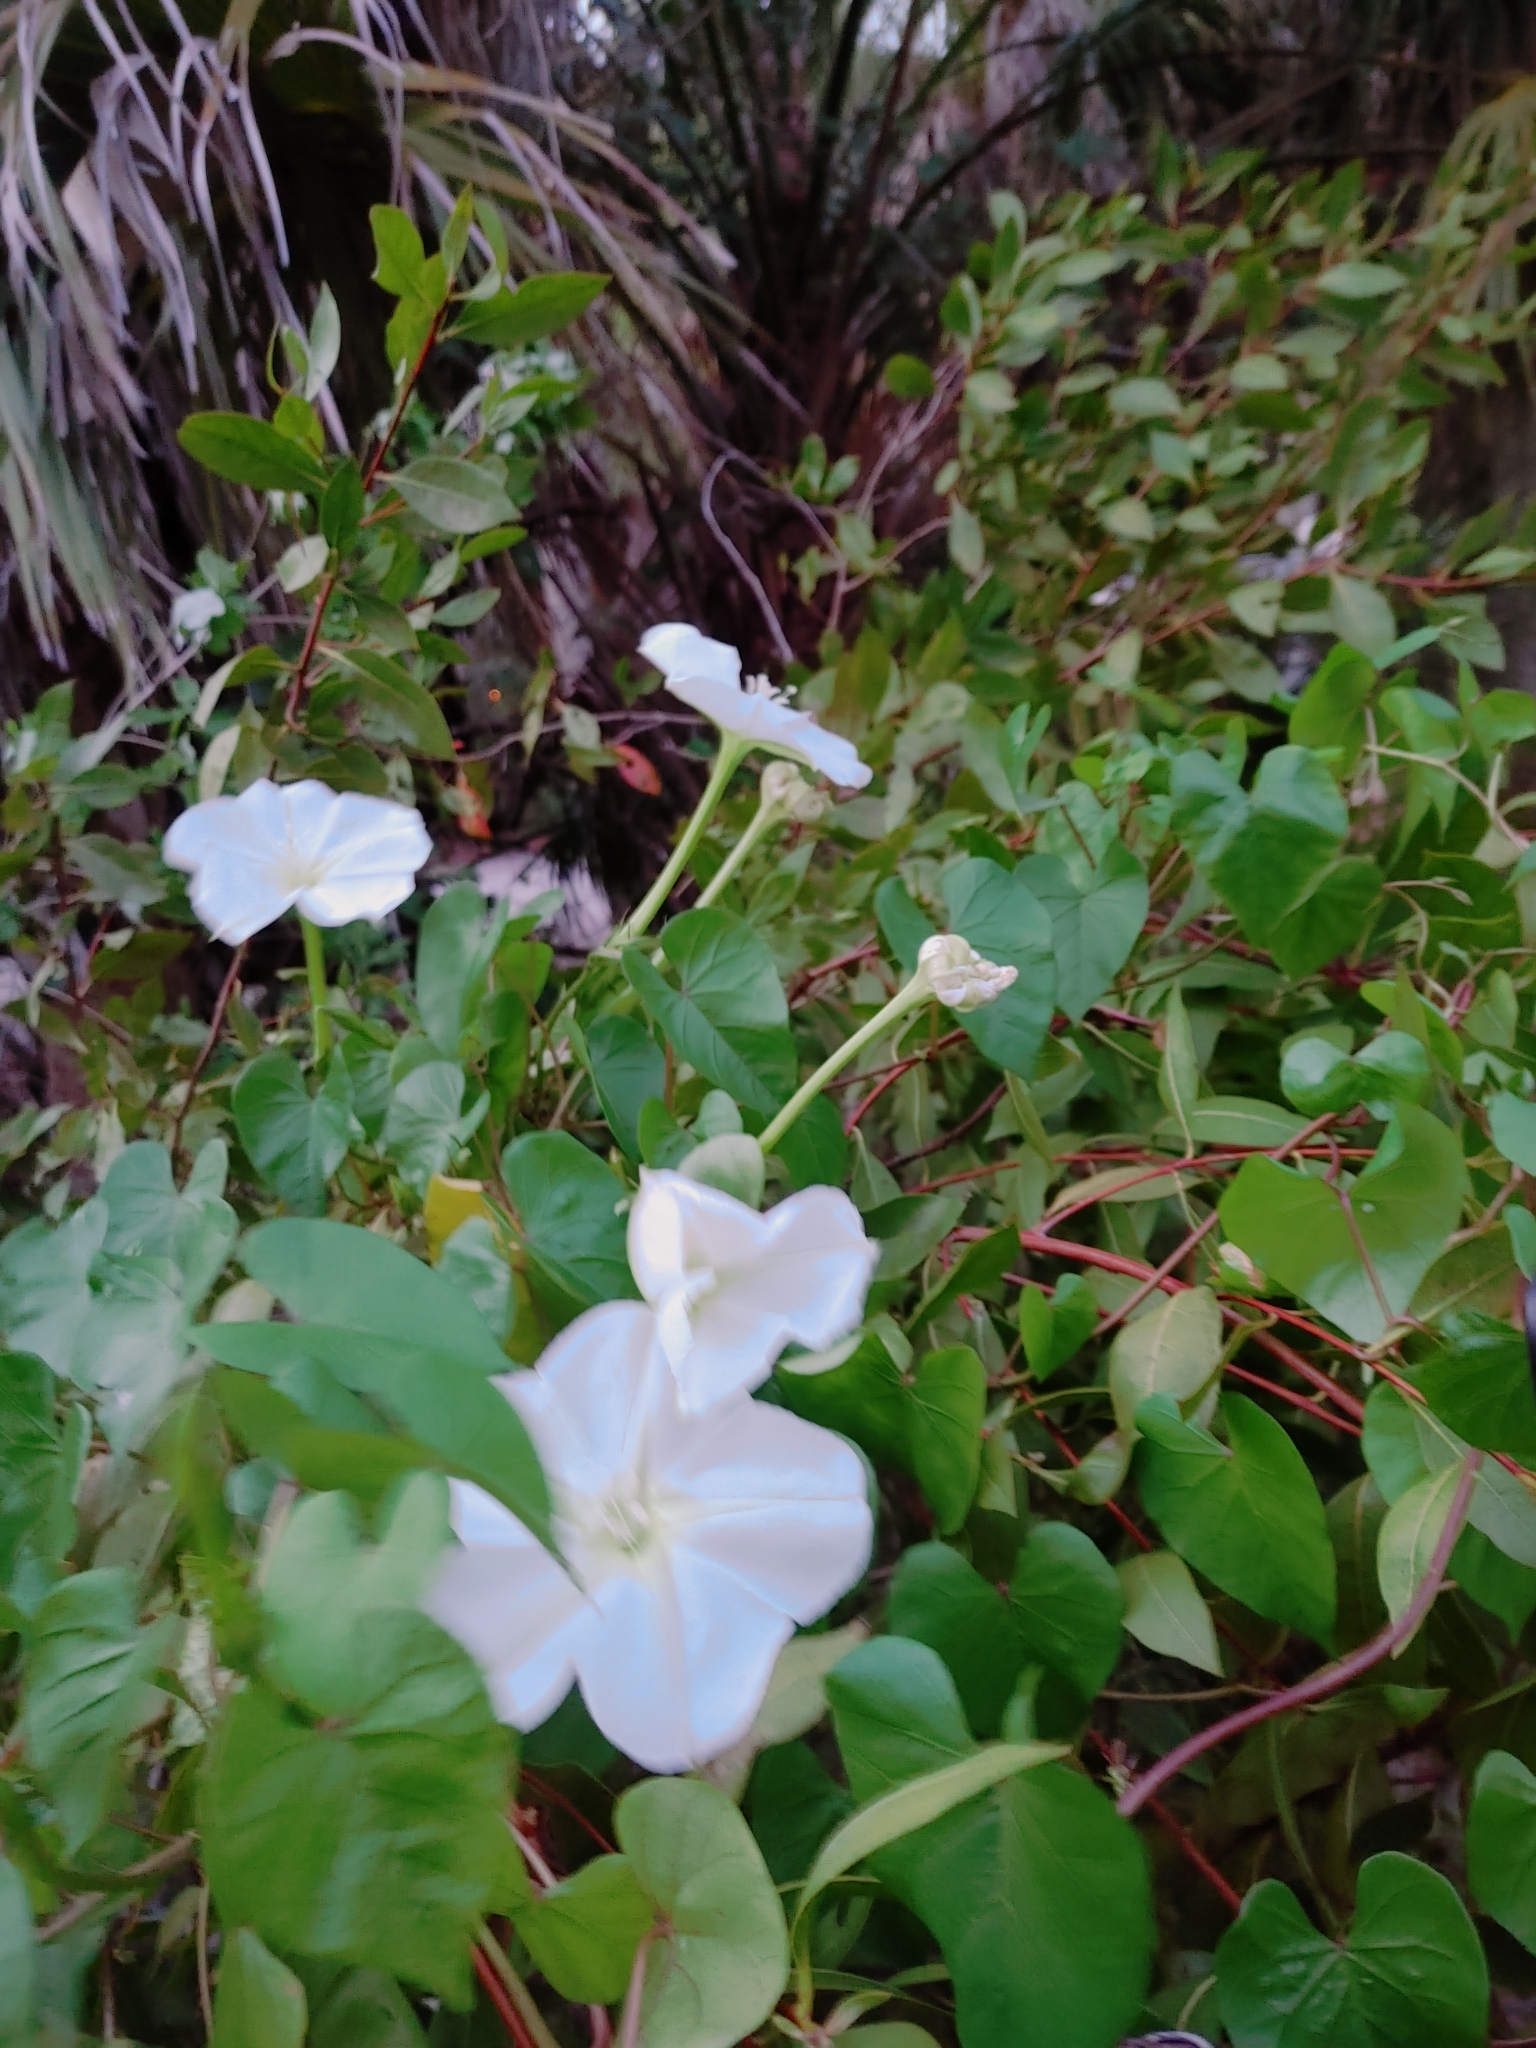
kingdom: Plantae
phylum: Tracheophyta
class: Magnoliopsida
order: Solanales
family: Convolvulaceae
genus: Ipomoea
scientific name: Ipomoea alba
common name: Moonflower
